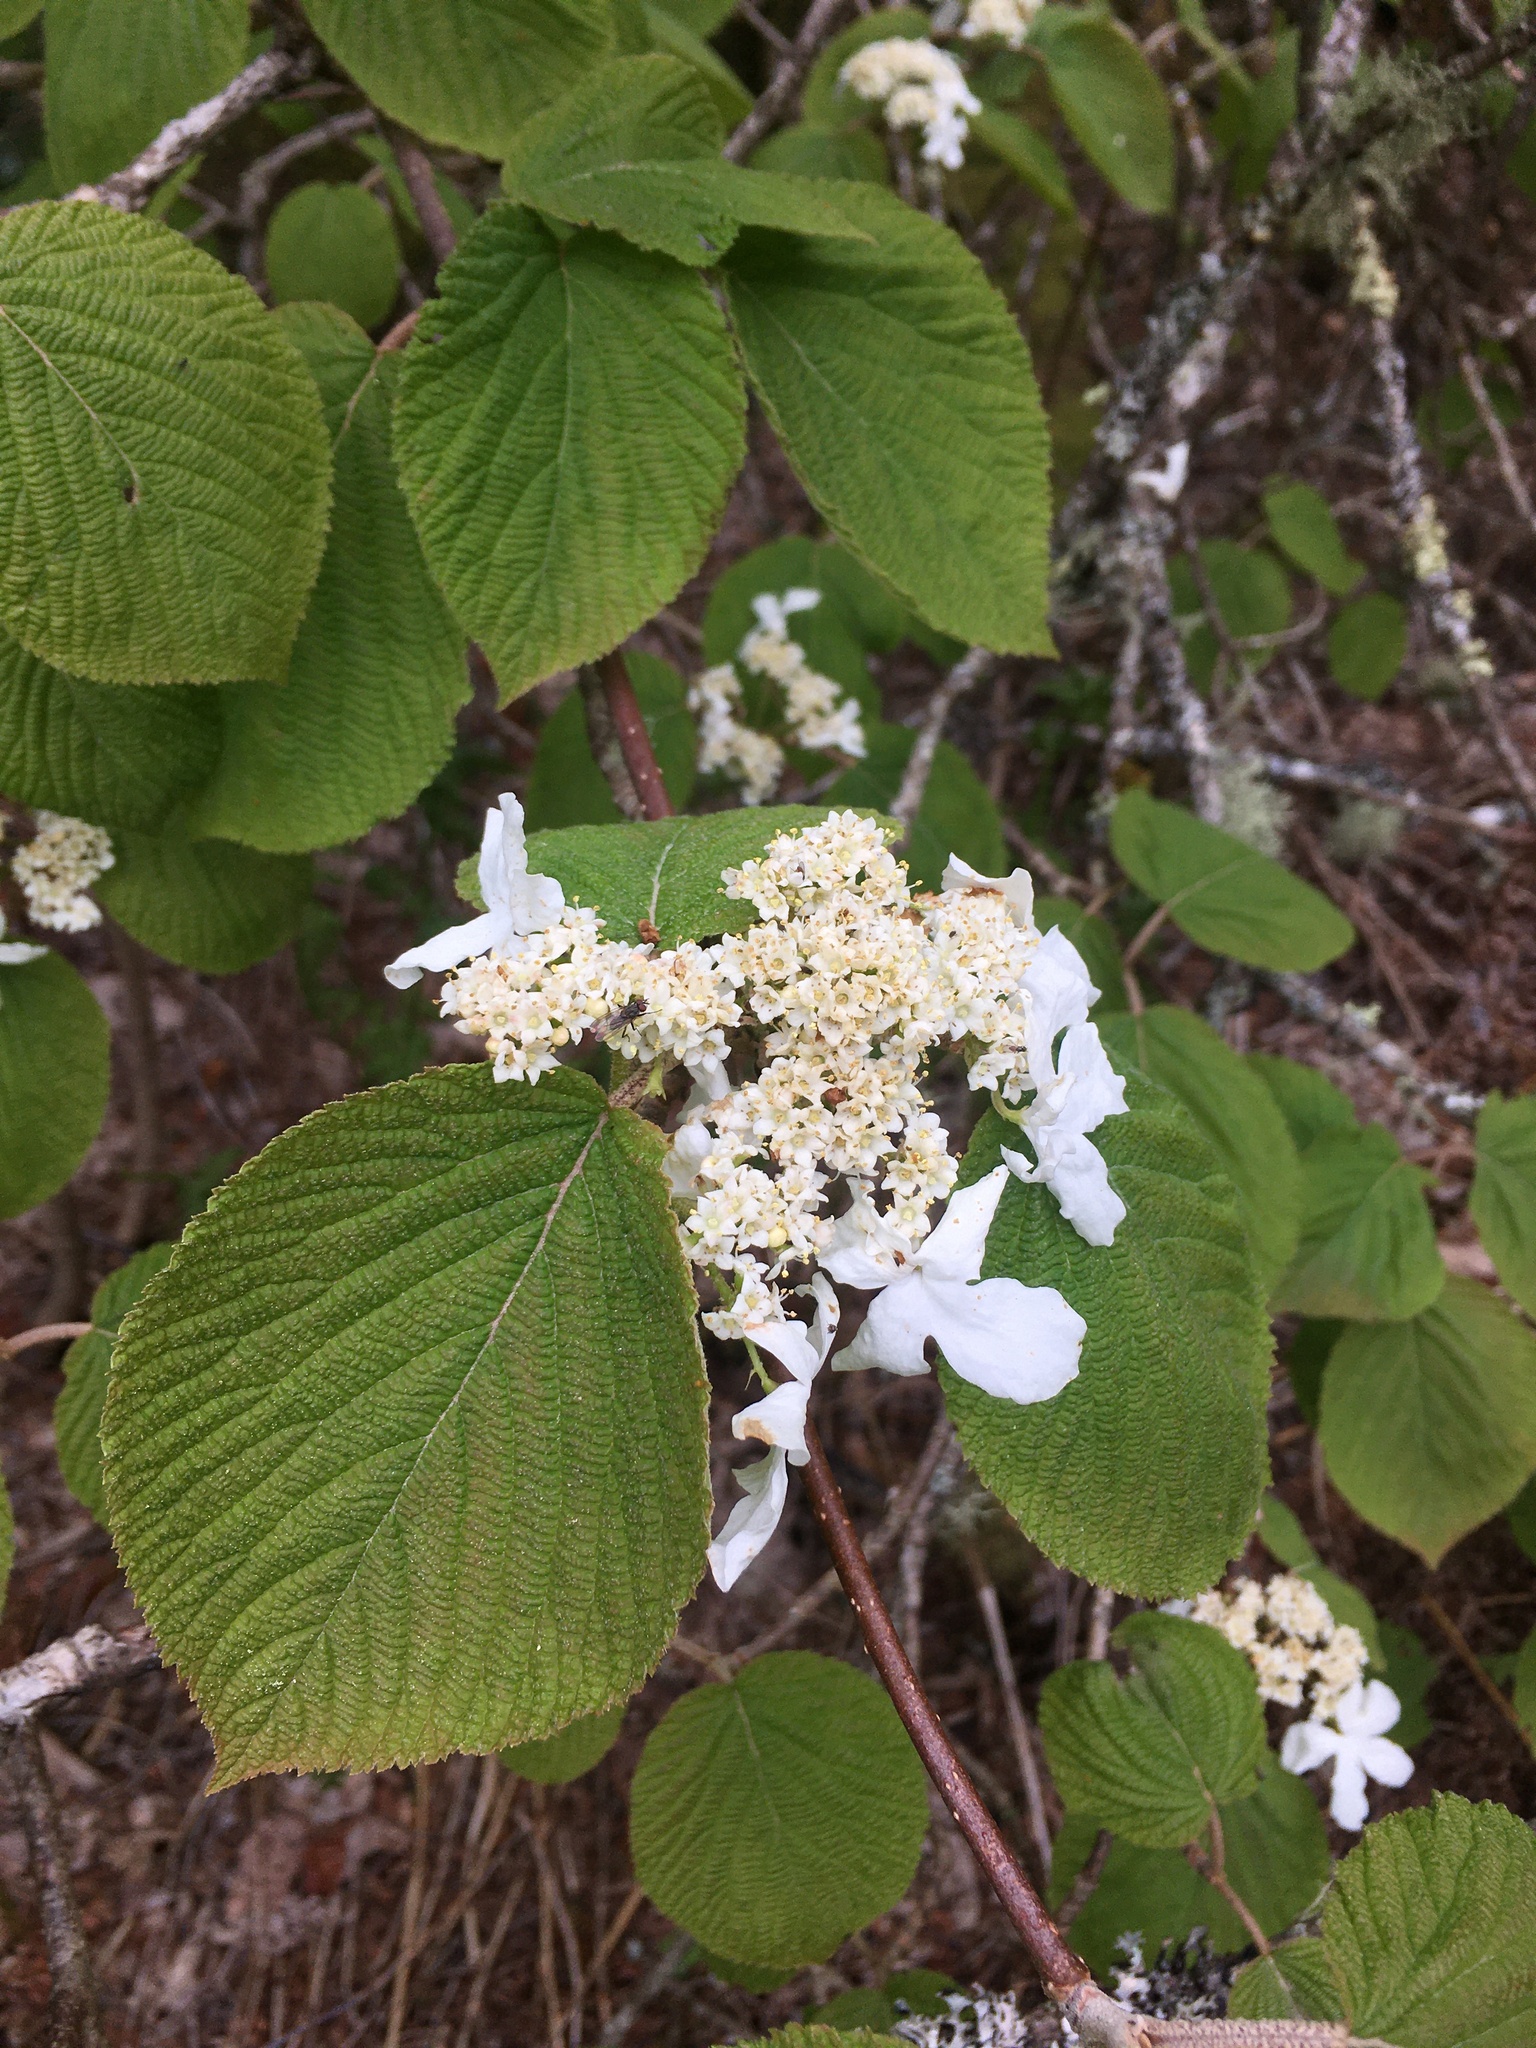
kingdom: Plantae
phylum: Tracheophyta
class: Magnoliopsida
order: Dipsacales
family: Viburnaceae
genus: Viburnum
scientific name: Viburnum lantanoides
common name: Hobblebush
